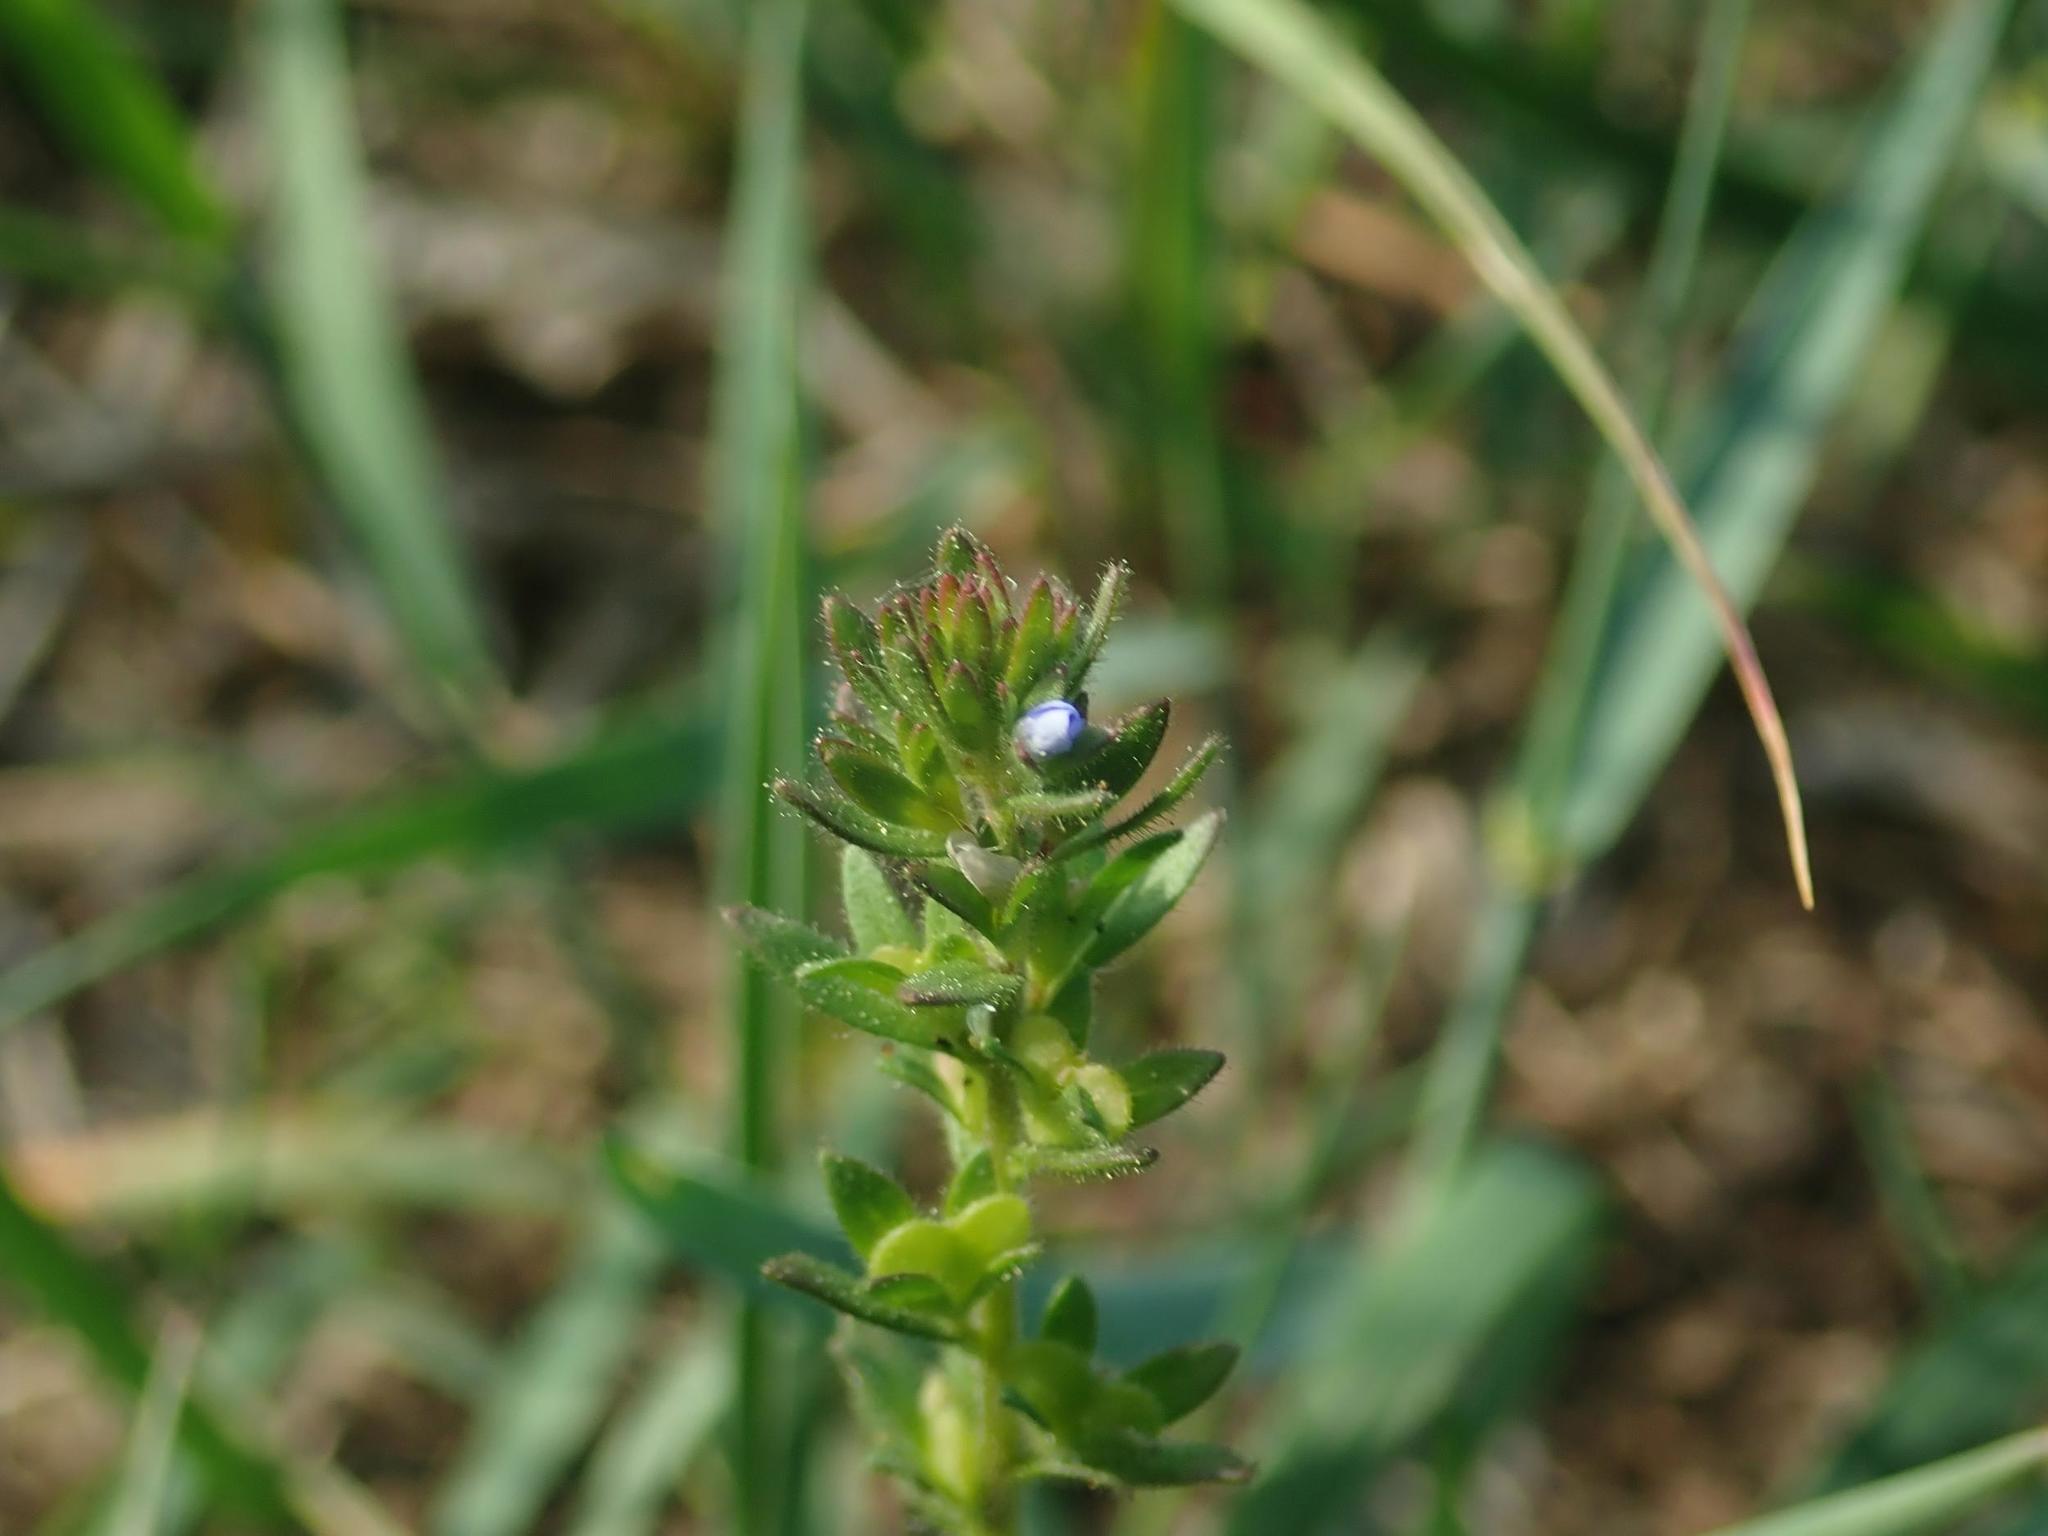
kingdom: Plantae
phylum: Tracheophyta
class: Magnoliopsida
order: Lamiales
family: Plantaginaceae
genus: Veronica
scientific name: Veronica arvensis
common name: Corn speedwell
